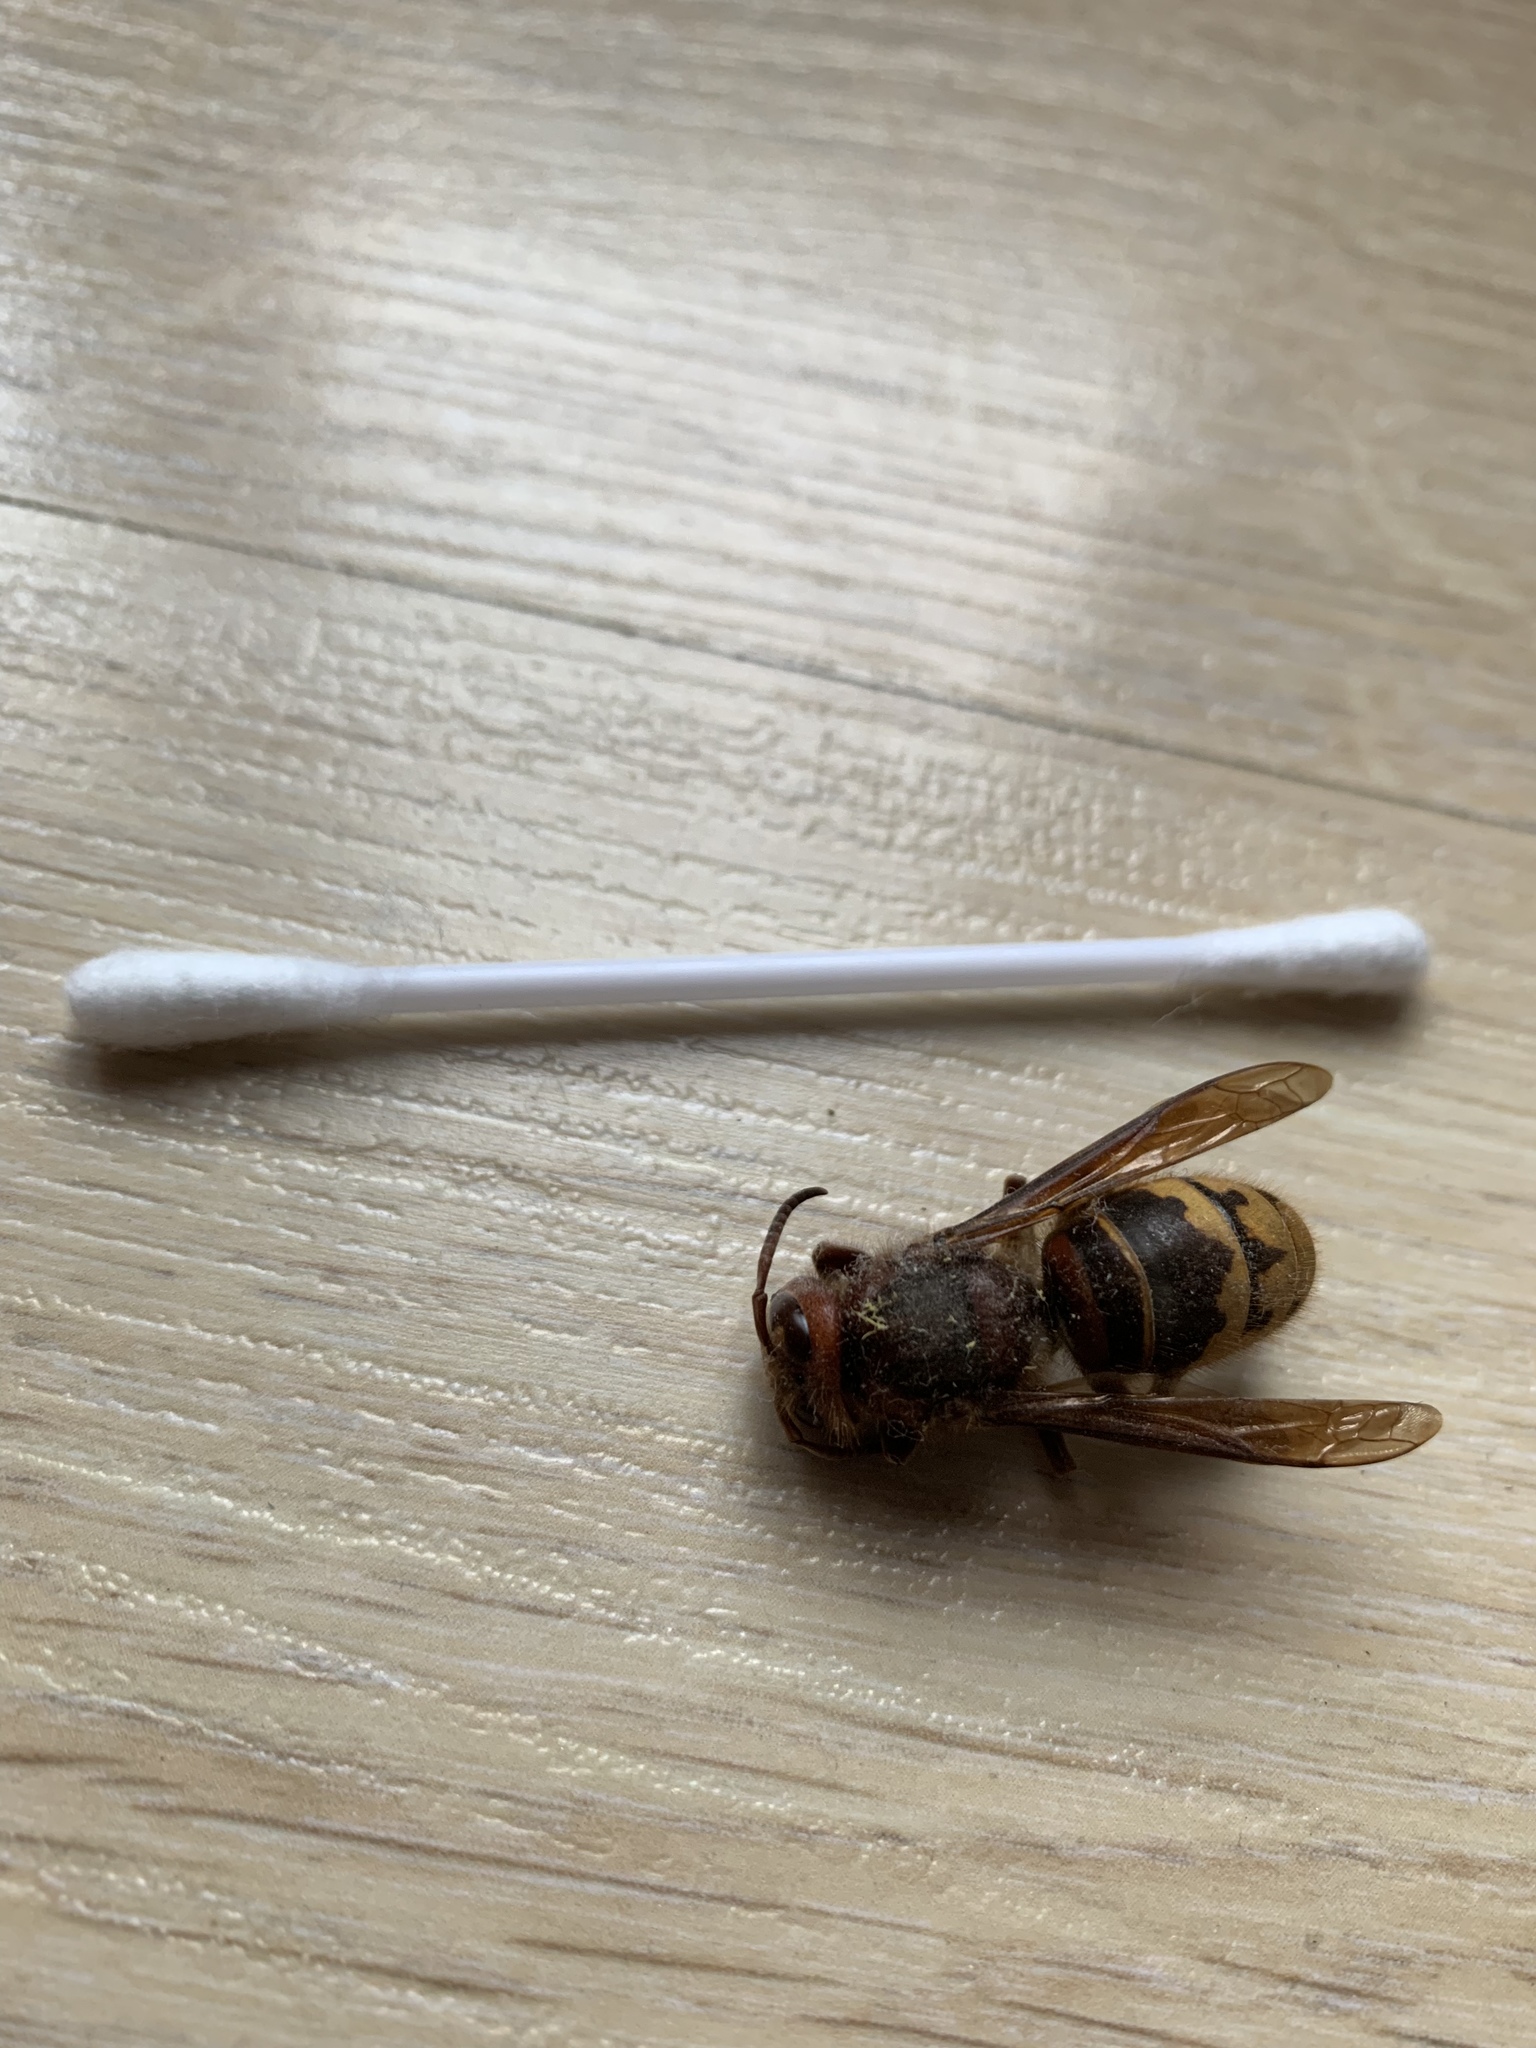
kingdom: Animalia
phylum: Arthropoda
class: Insecta
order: Hymenoptera
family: Vespidae
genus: Vespa
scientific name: Vespa crabro
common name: Hornet
